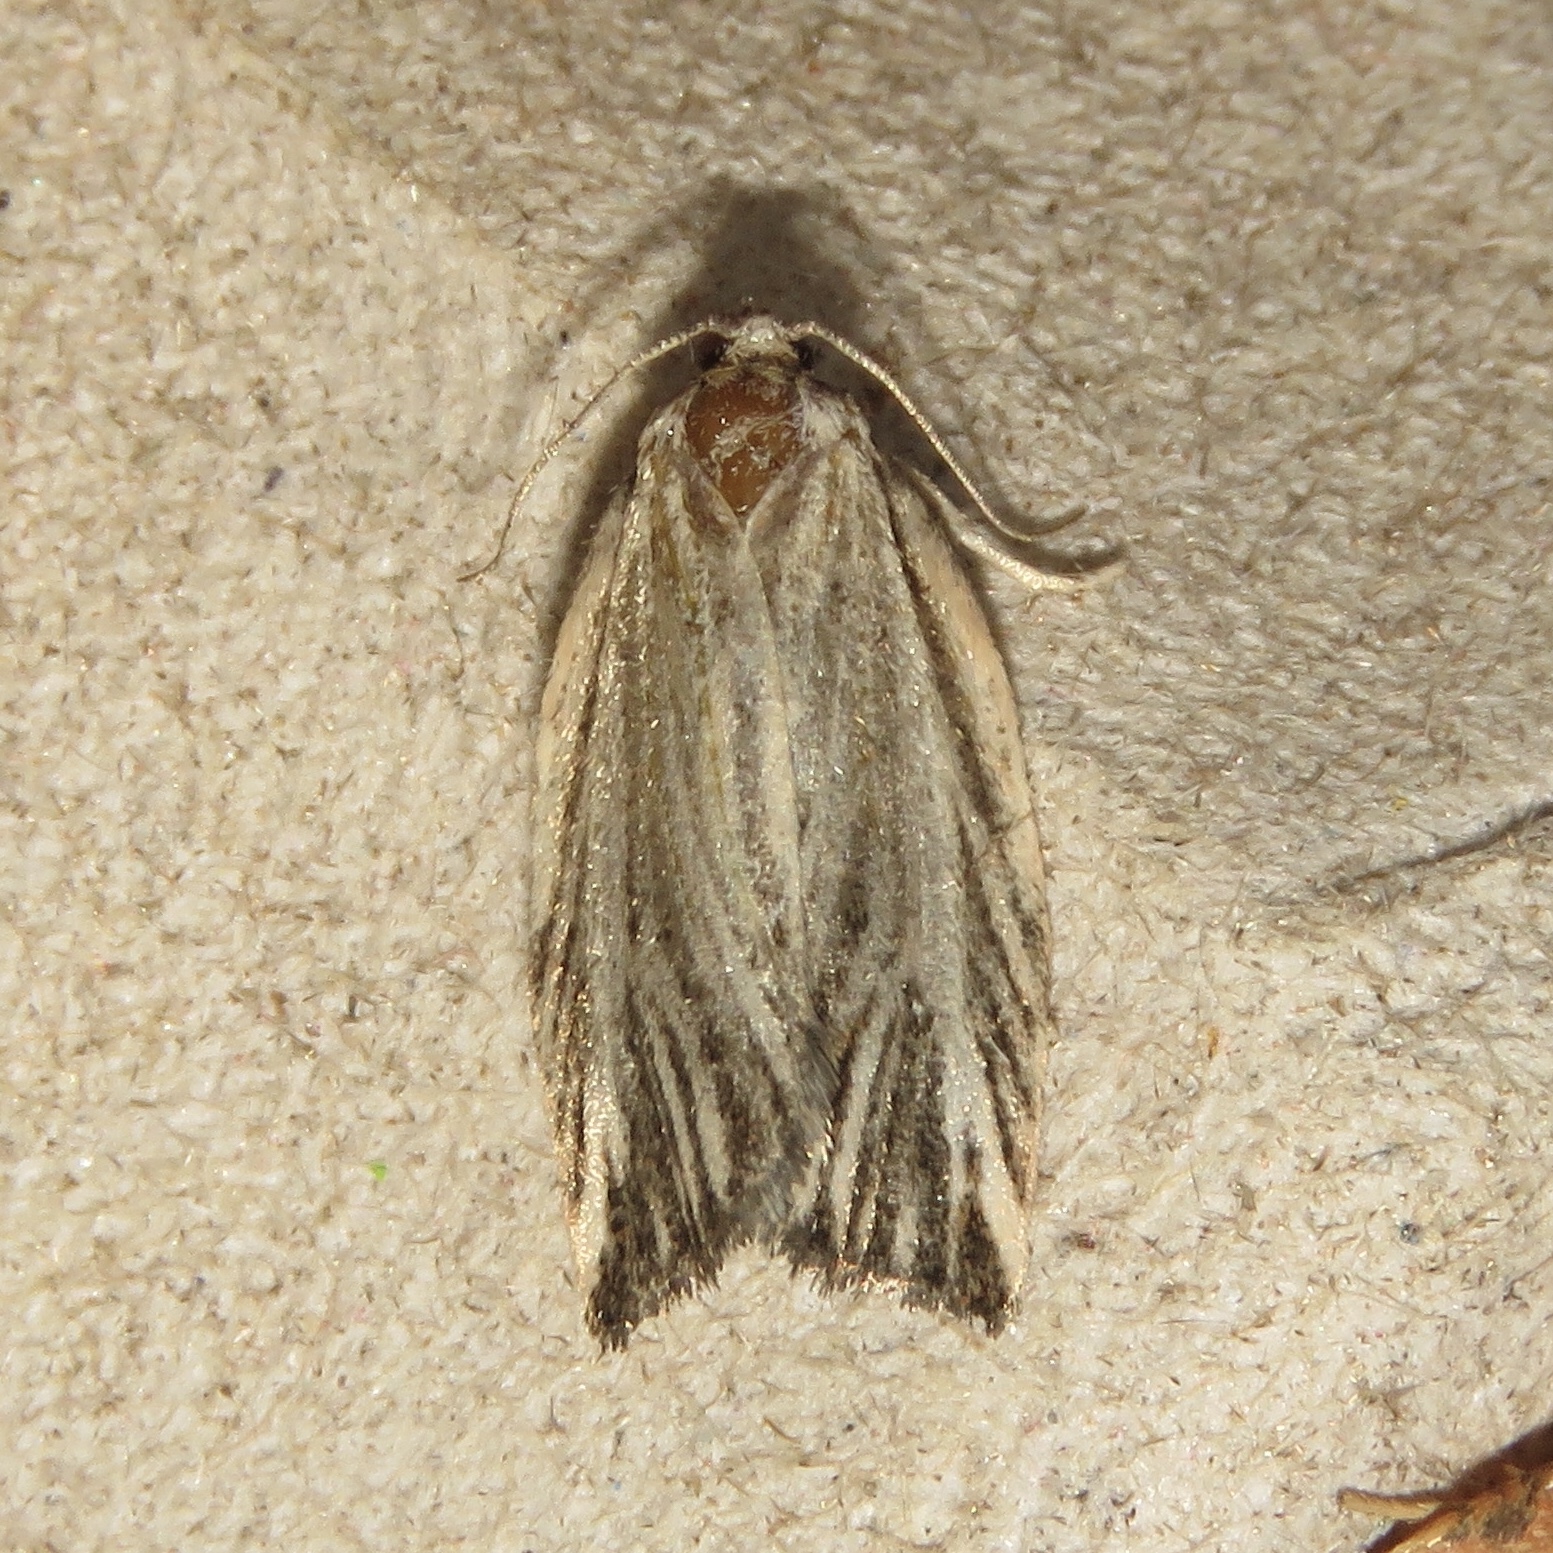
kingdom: Animalia
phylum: Arthropoda
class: Insecta
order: Lepidoptera
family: Tortricidae
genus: Archips
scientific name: Archips strianus
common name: Striated tortrix moth
